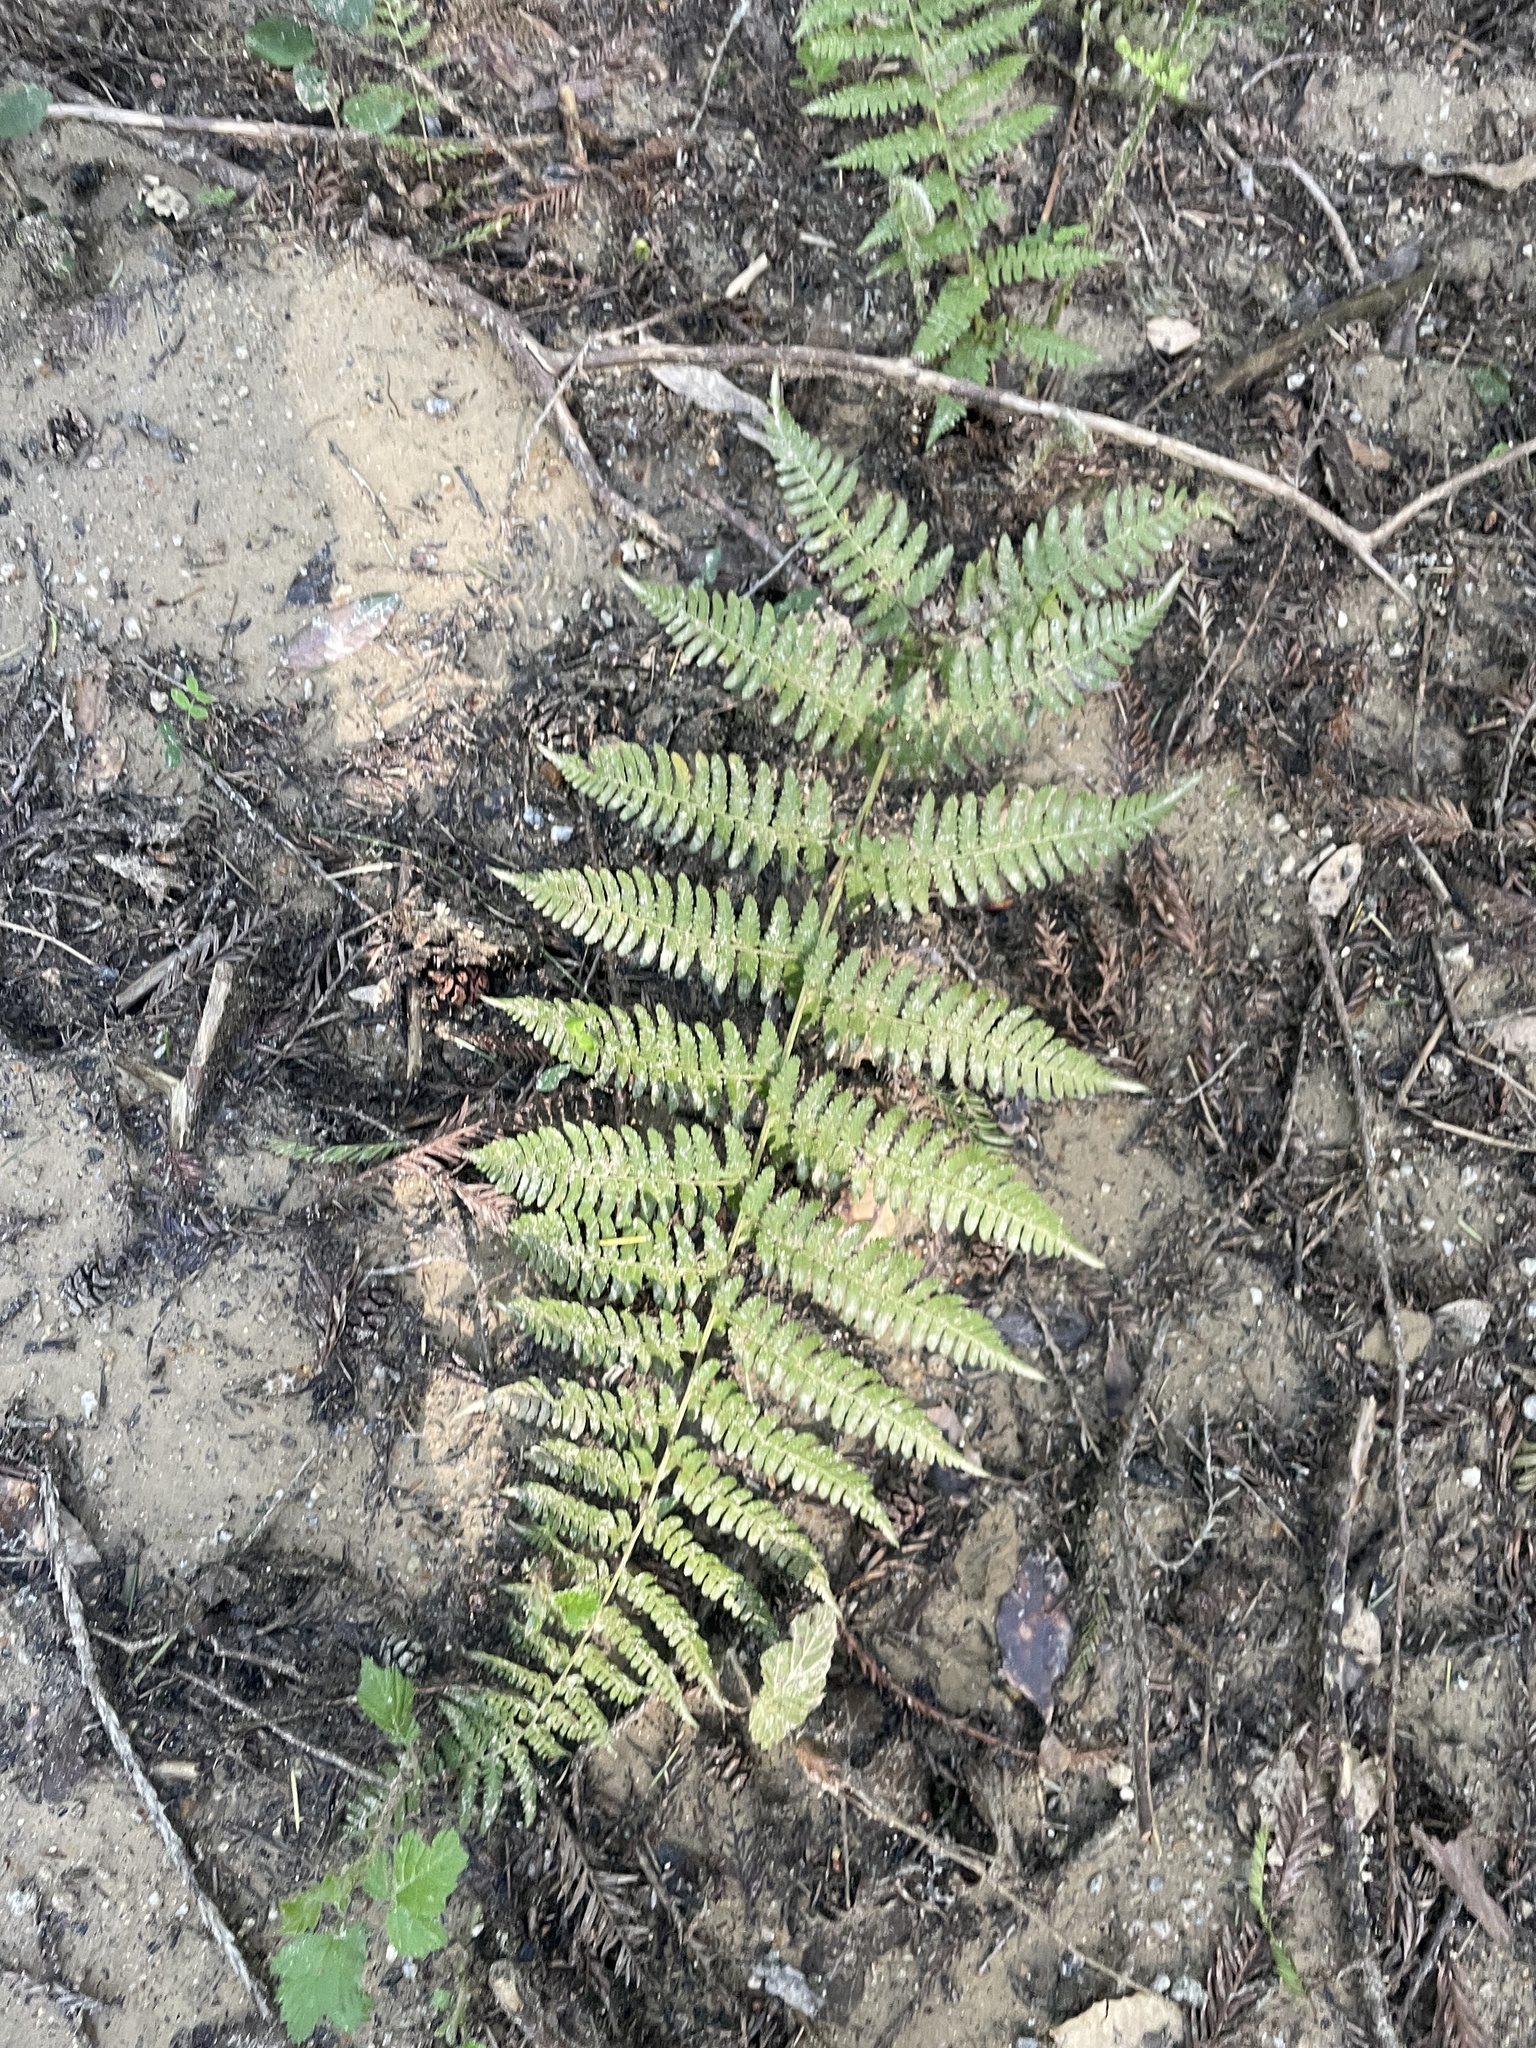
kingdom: Plantae
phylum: Tracheophyta
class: Polypodiopsida
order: Polypodiales
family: Dryopteridaceae
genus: Dryopteris
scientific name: Dryopteris arguta
